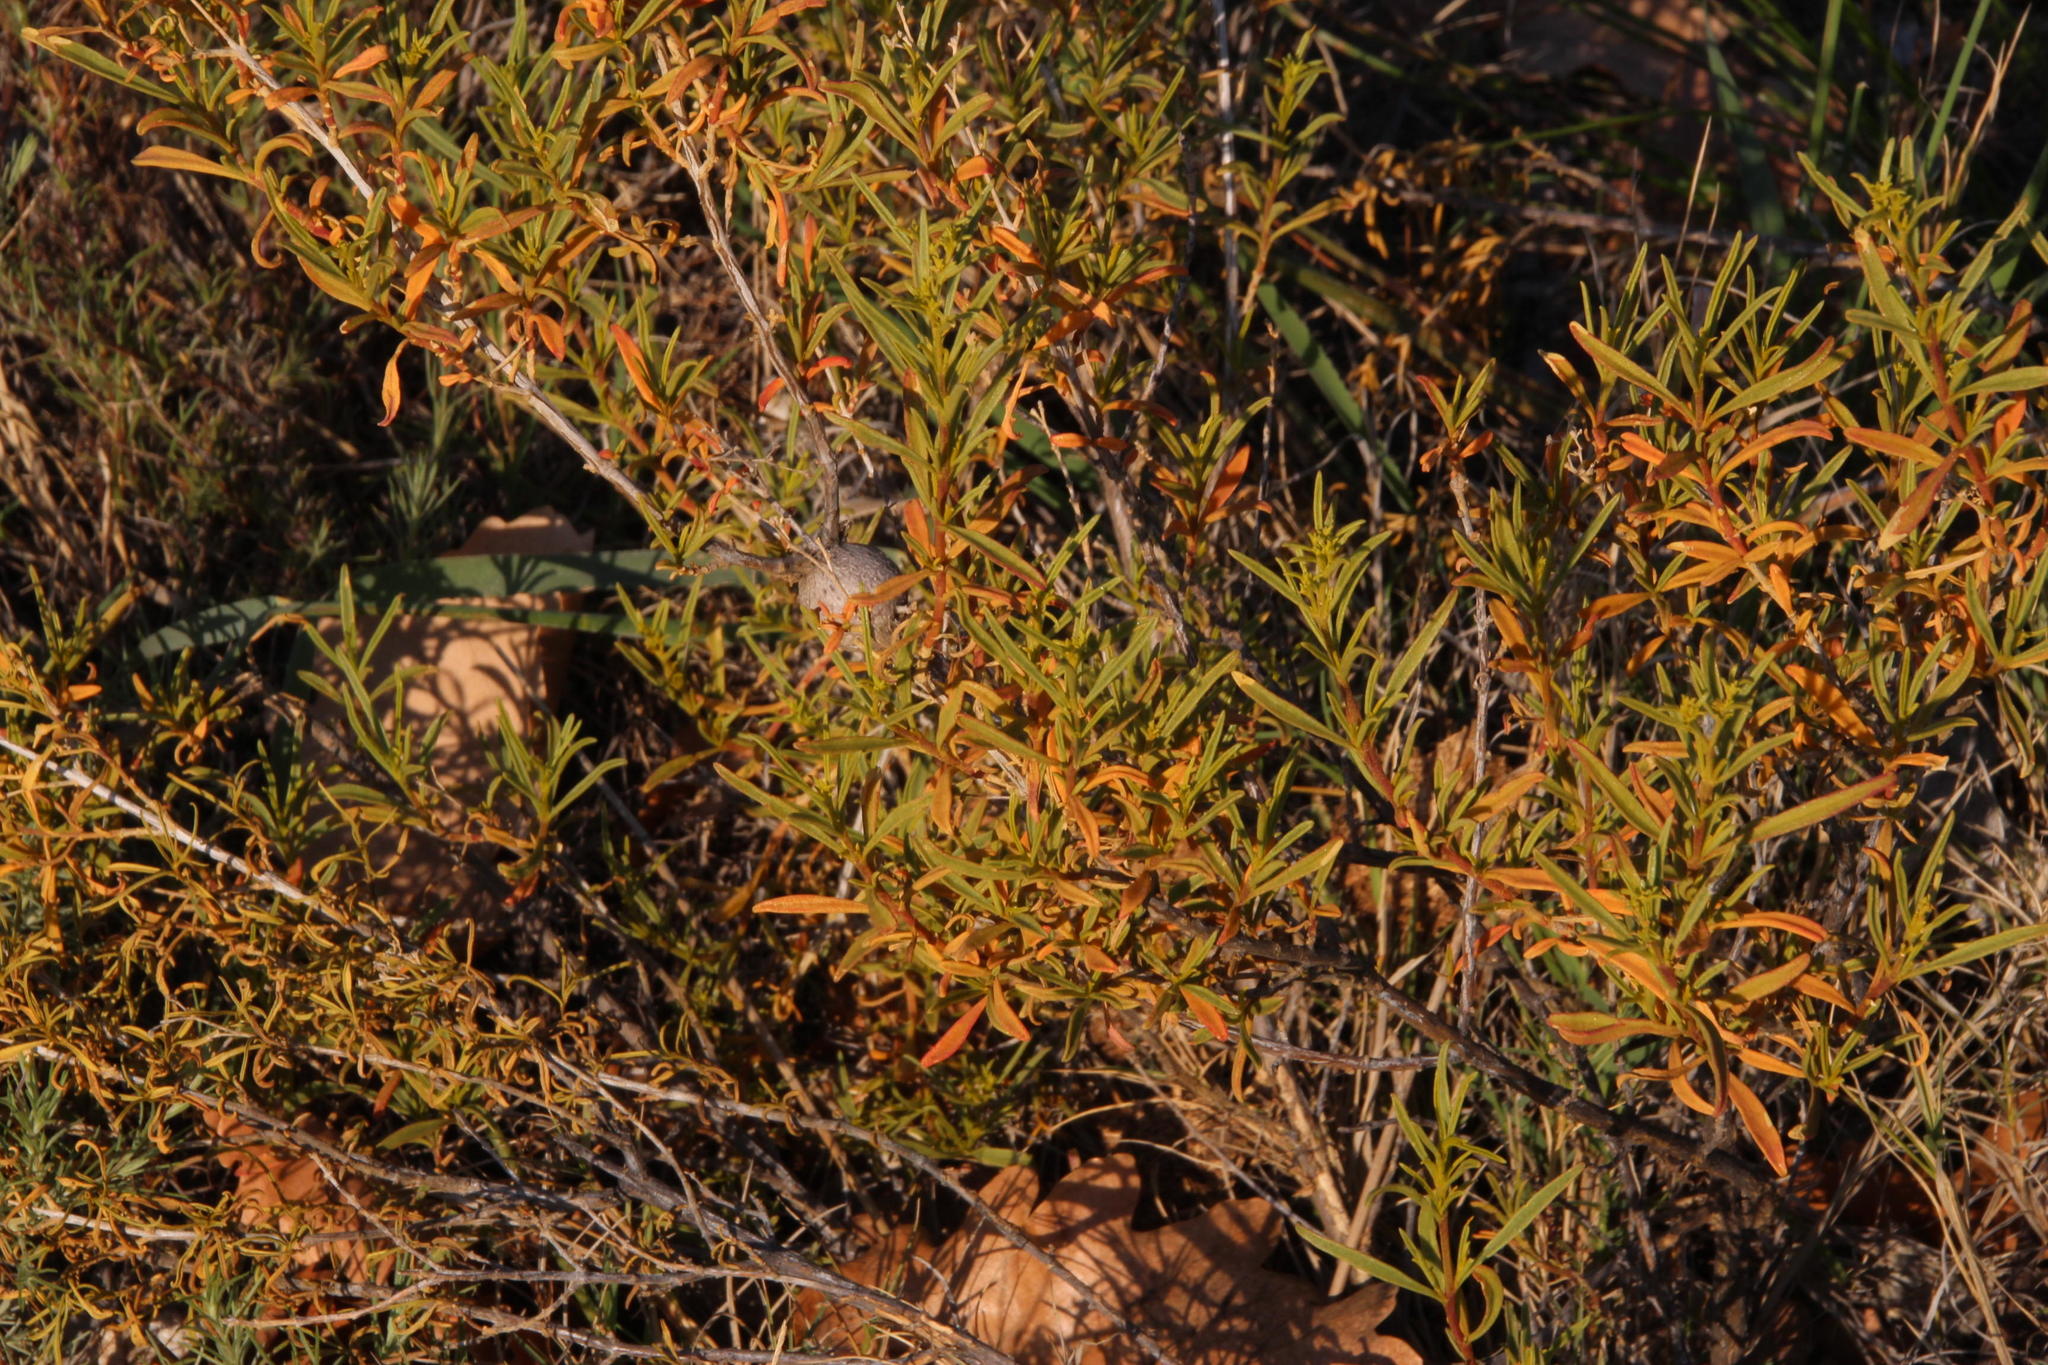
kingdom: Plantae
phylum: Tracheophyta
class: Magnoliopsida
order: Caryophyllales
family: Aizoaceae
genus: Aizoon
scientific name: Aizoon africanum
